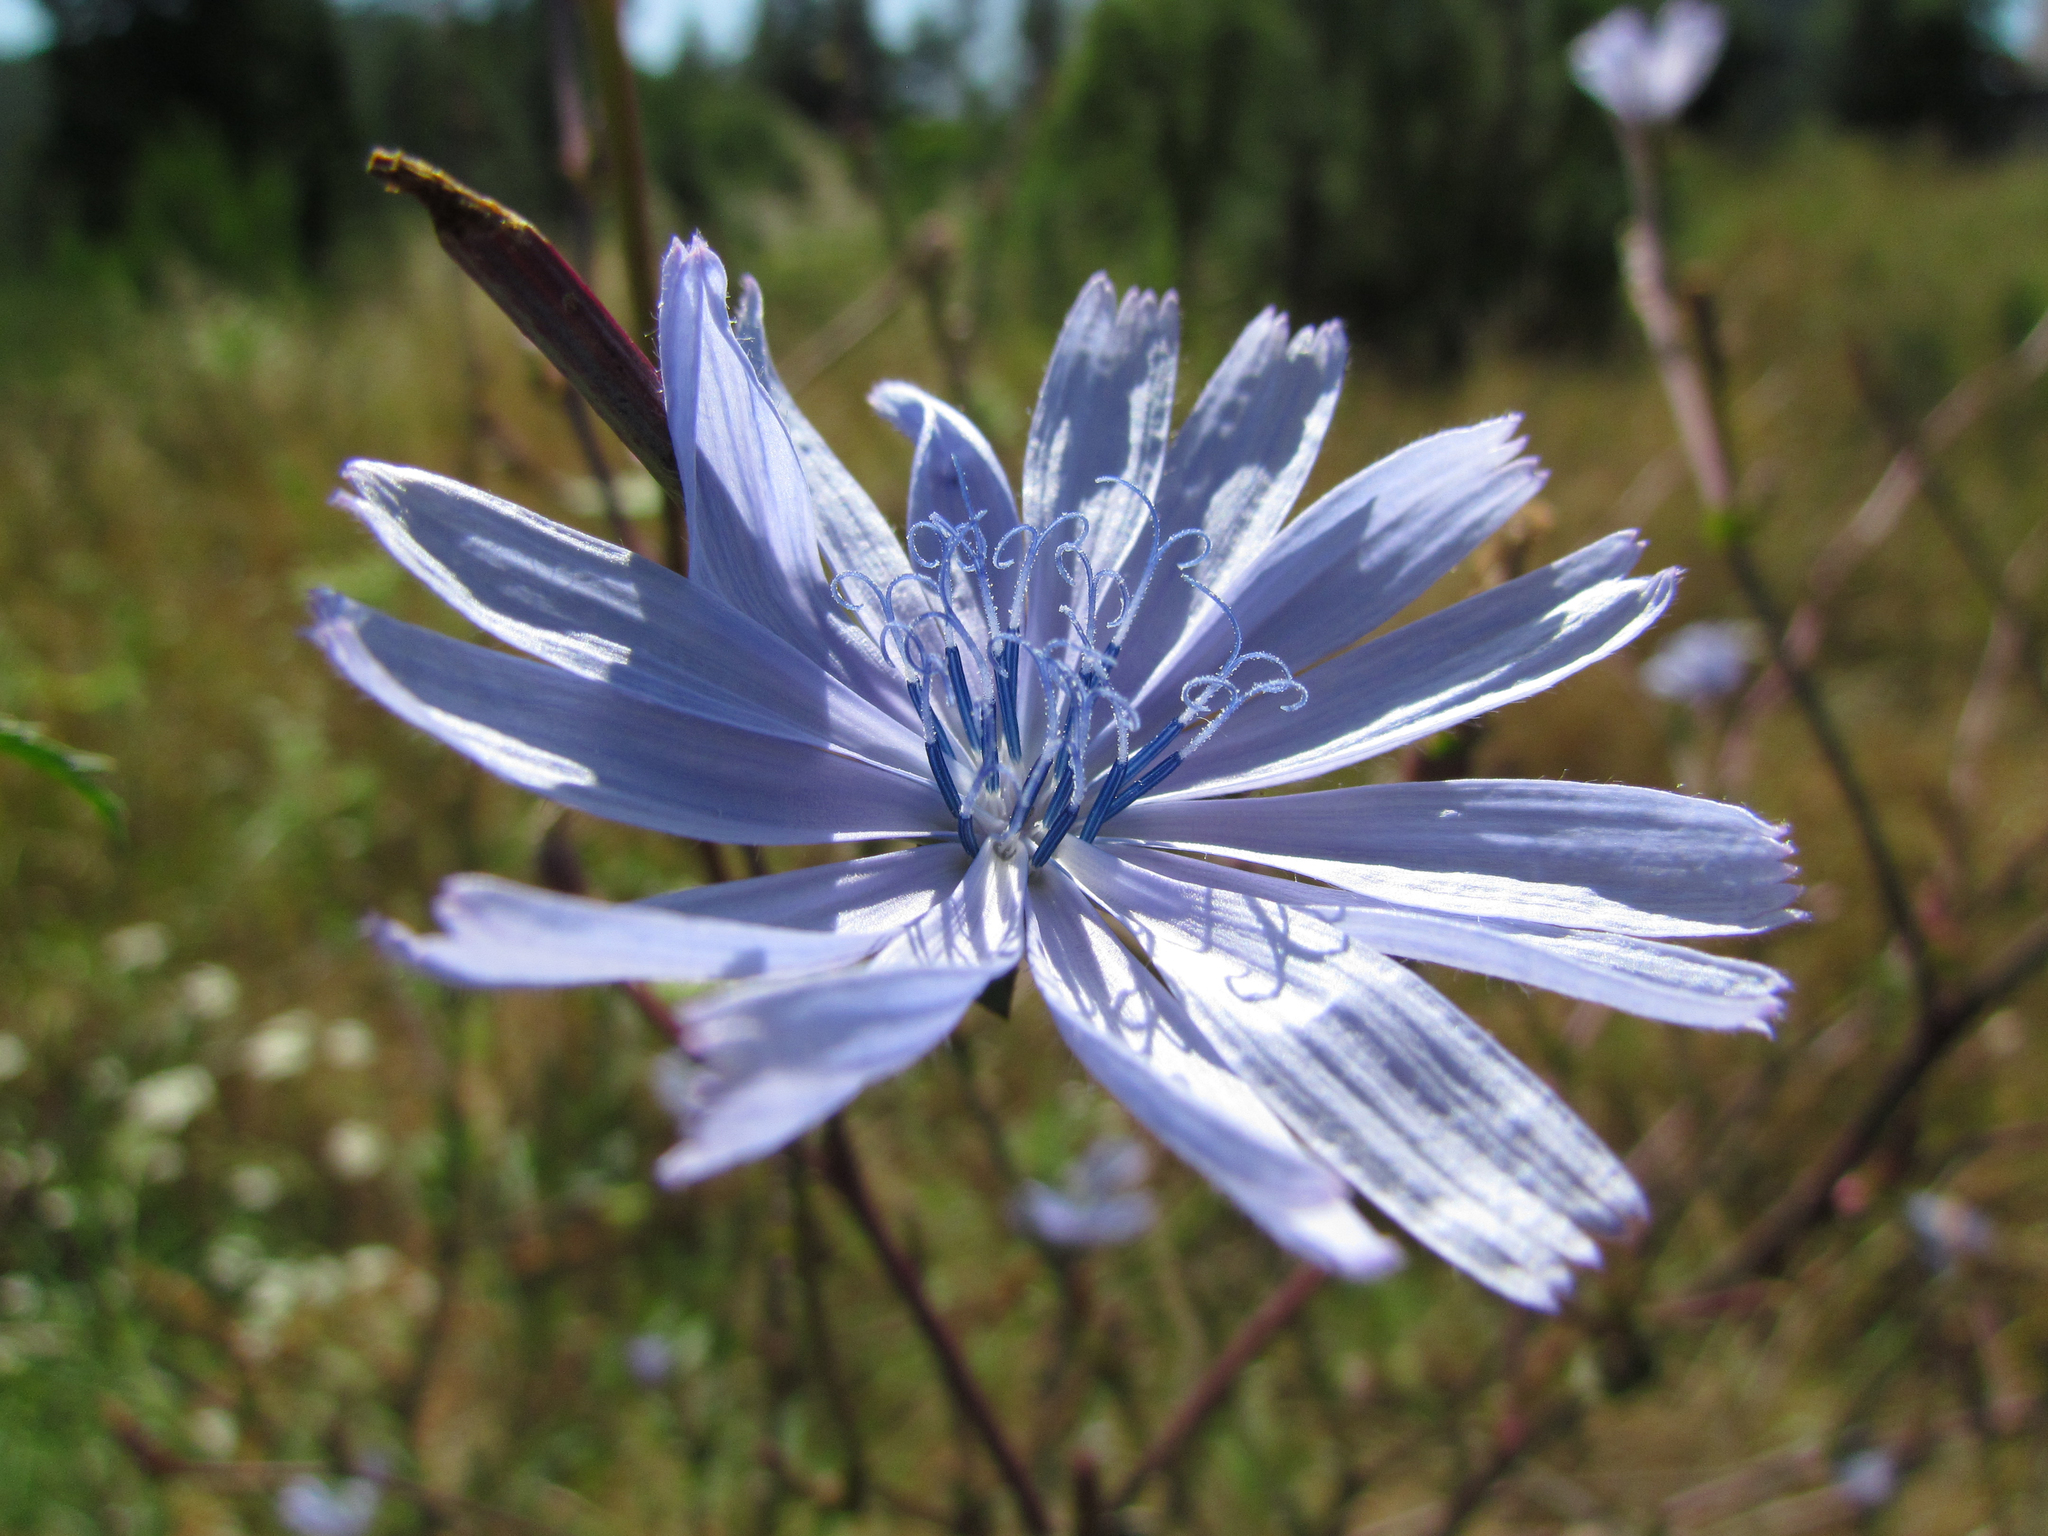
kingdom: Plantae
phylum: Tracheophyta
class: Magnoliopsida
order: Asterales
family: Asteraceae
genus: Cichorium
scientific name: Cichorium intybus
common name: Chicory
